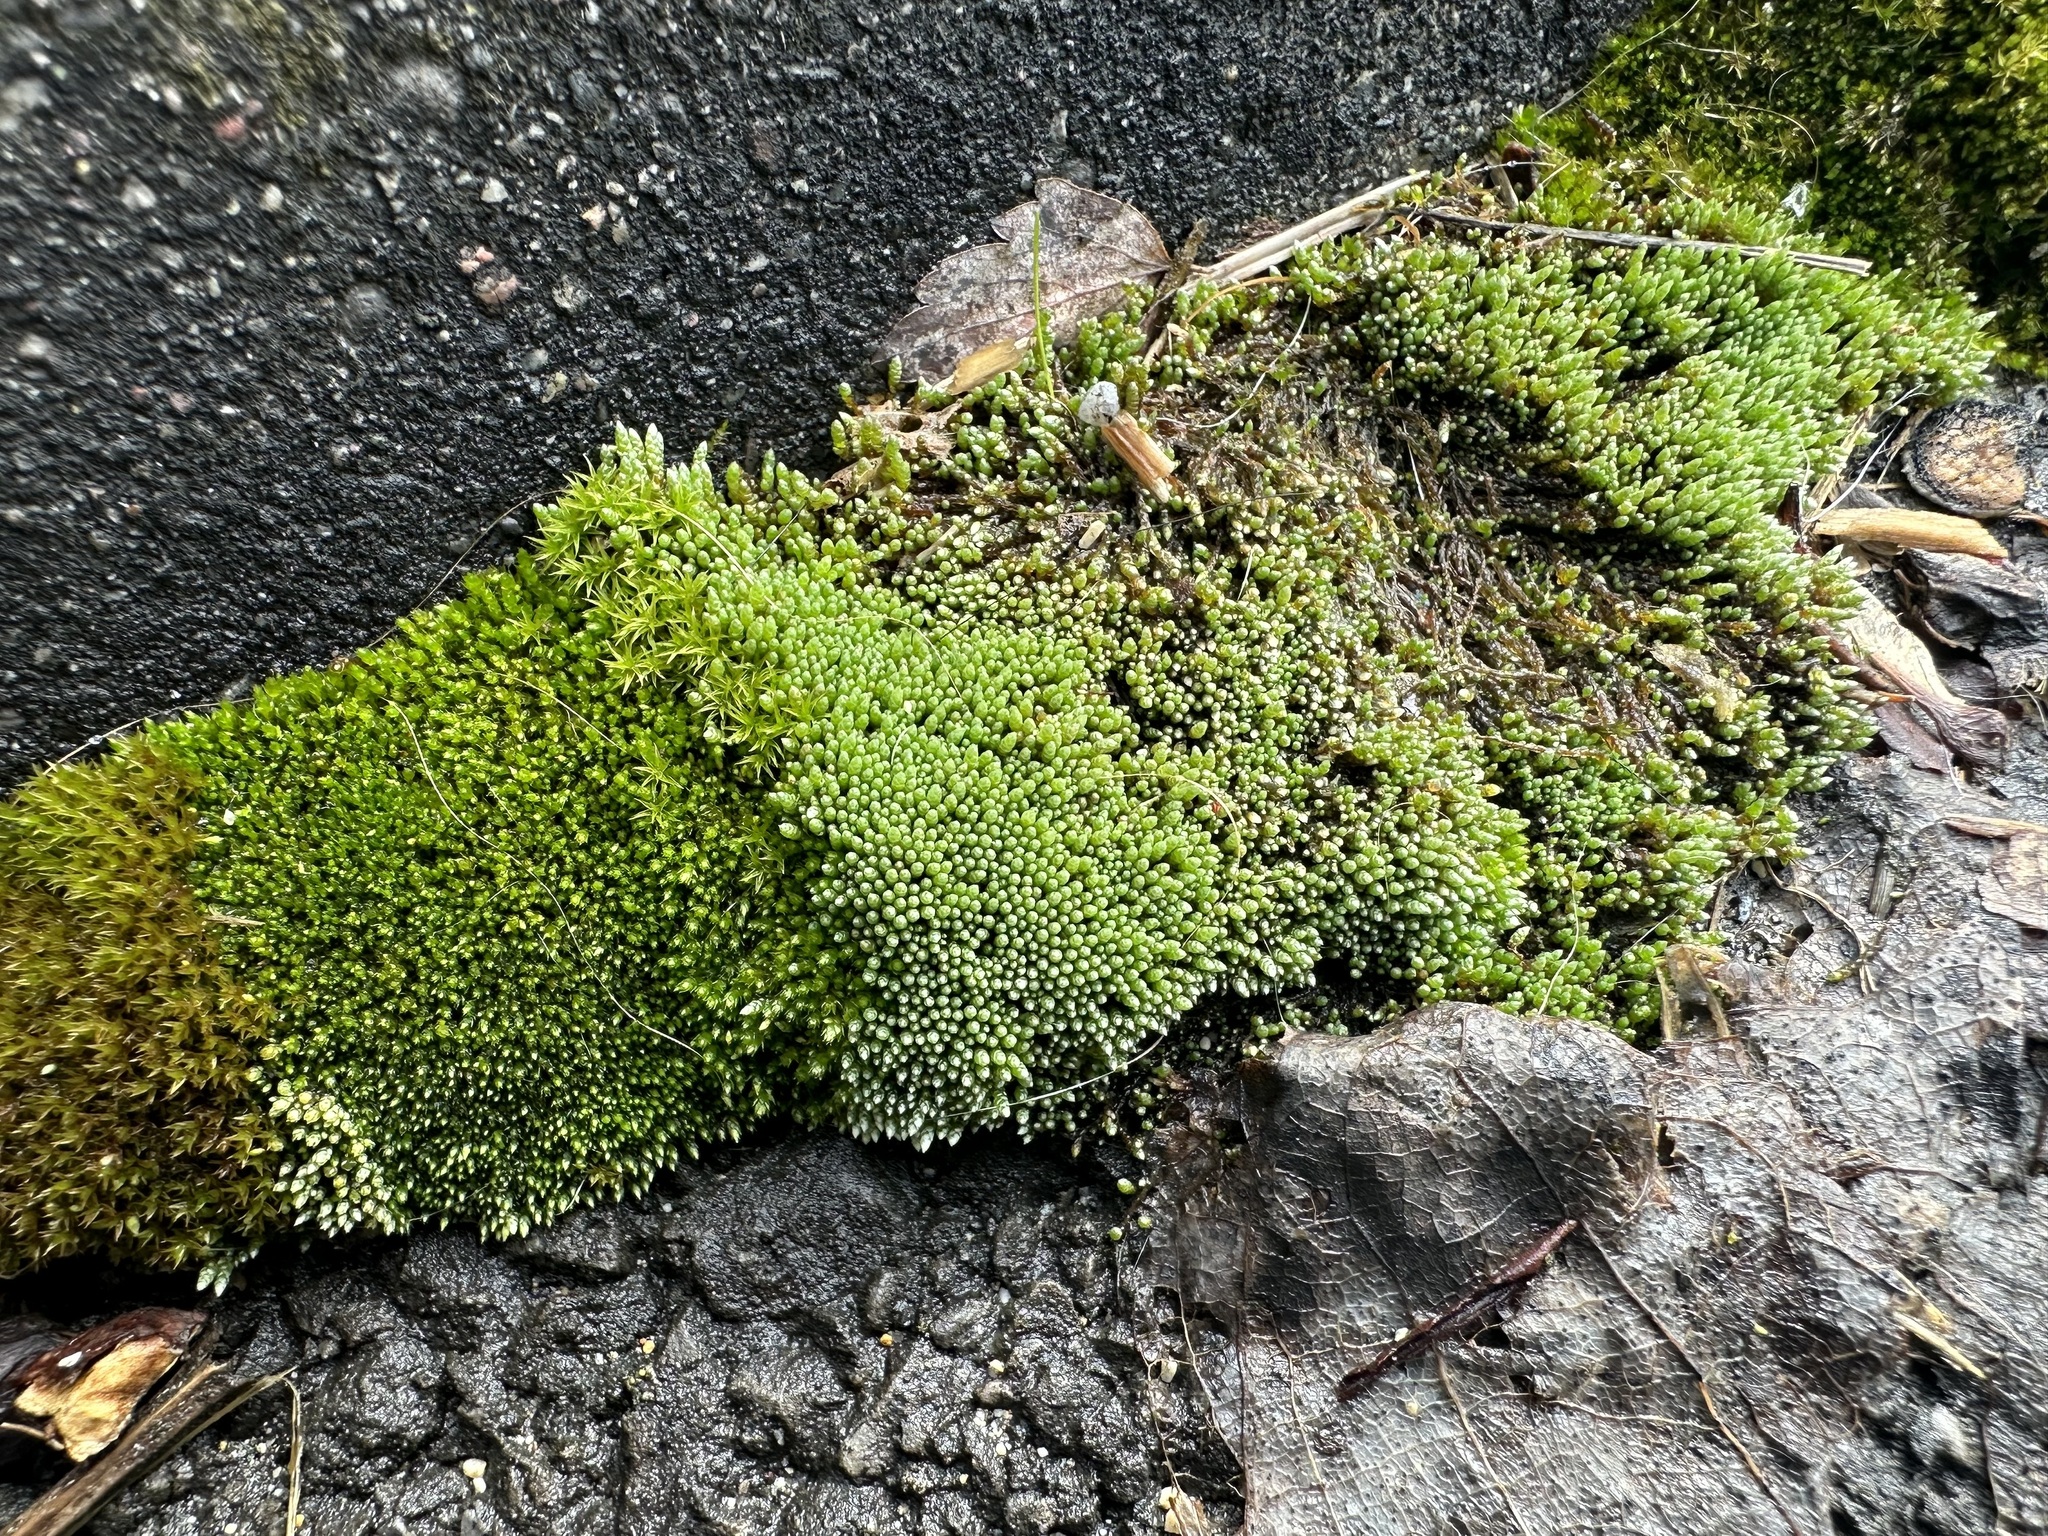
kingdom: Plantae
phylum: Bryophyta
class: Bryopsida
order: Bryales
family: Bryaceae
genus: Bryum
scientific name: Bryum argenteum
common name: Silver-moss
